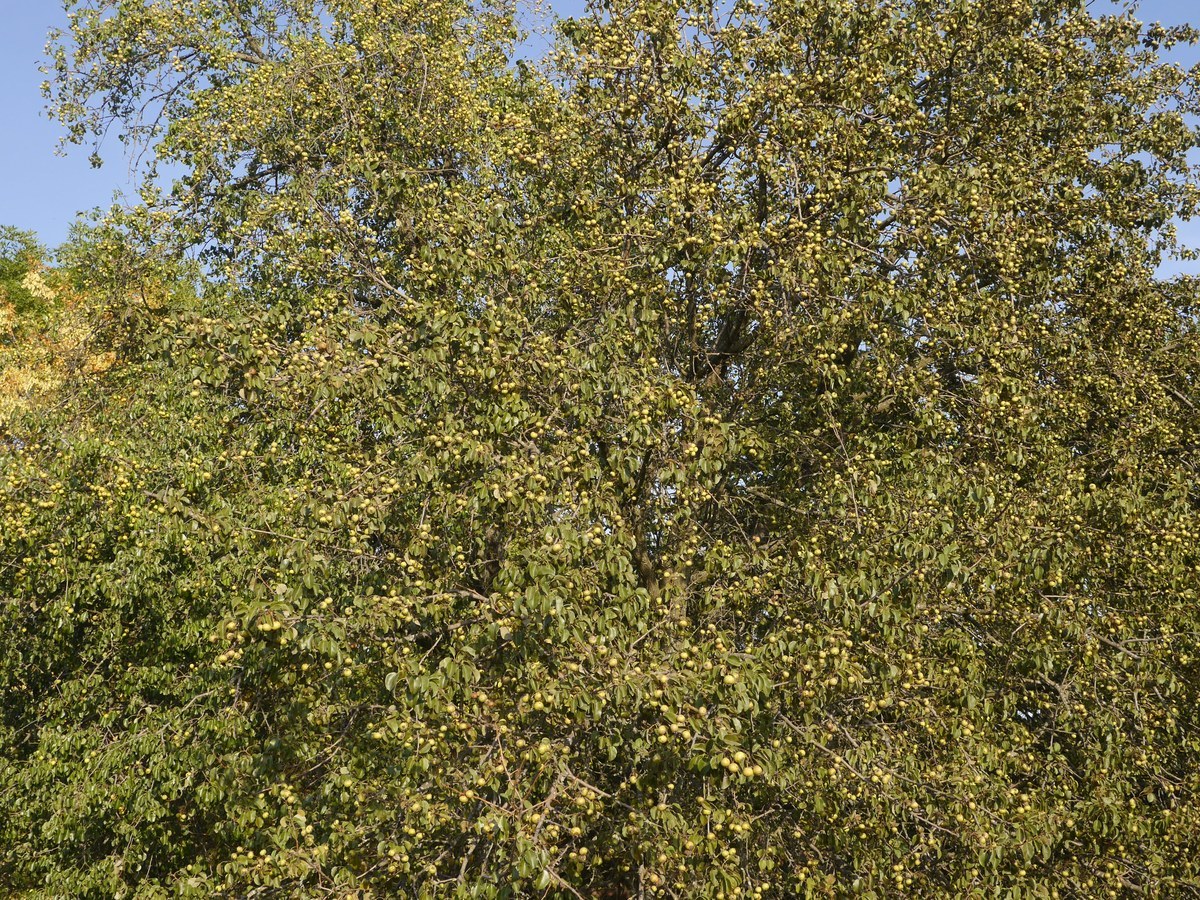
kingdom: Plantae
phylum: Tracheophyta
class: Magnoliopsida
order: Rosales
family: Rosaceae
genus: Pyrus
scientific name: Pyrus communis
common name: Pear
